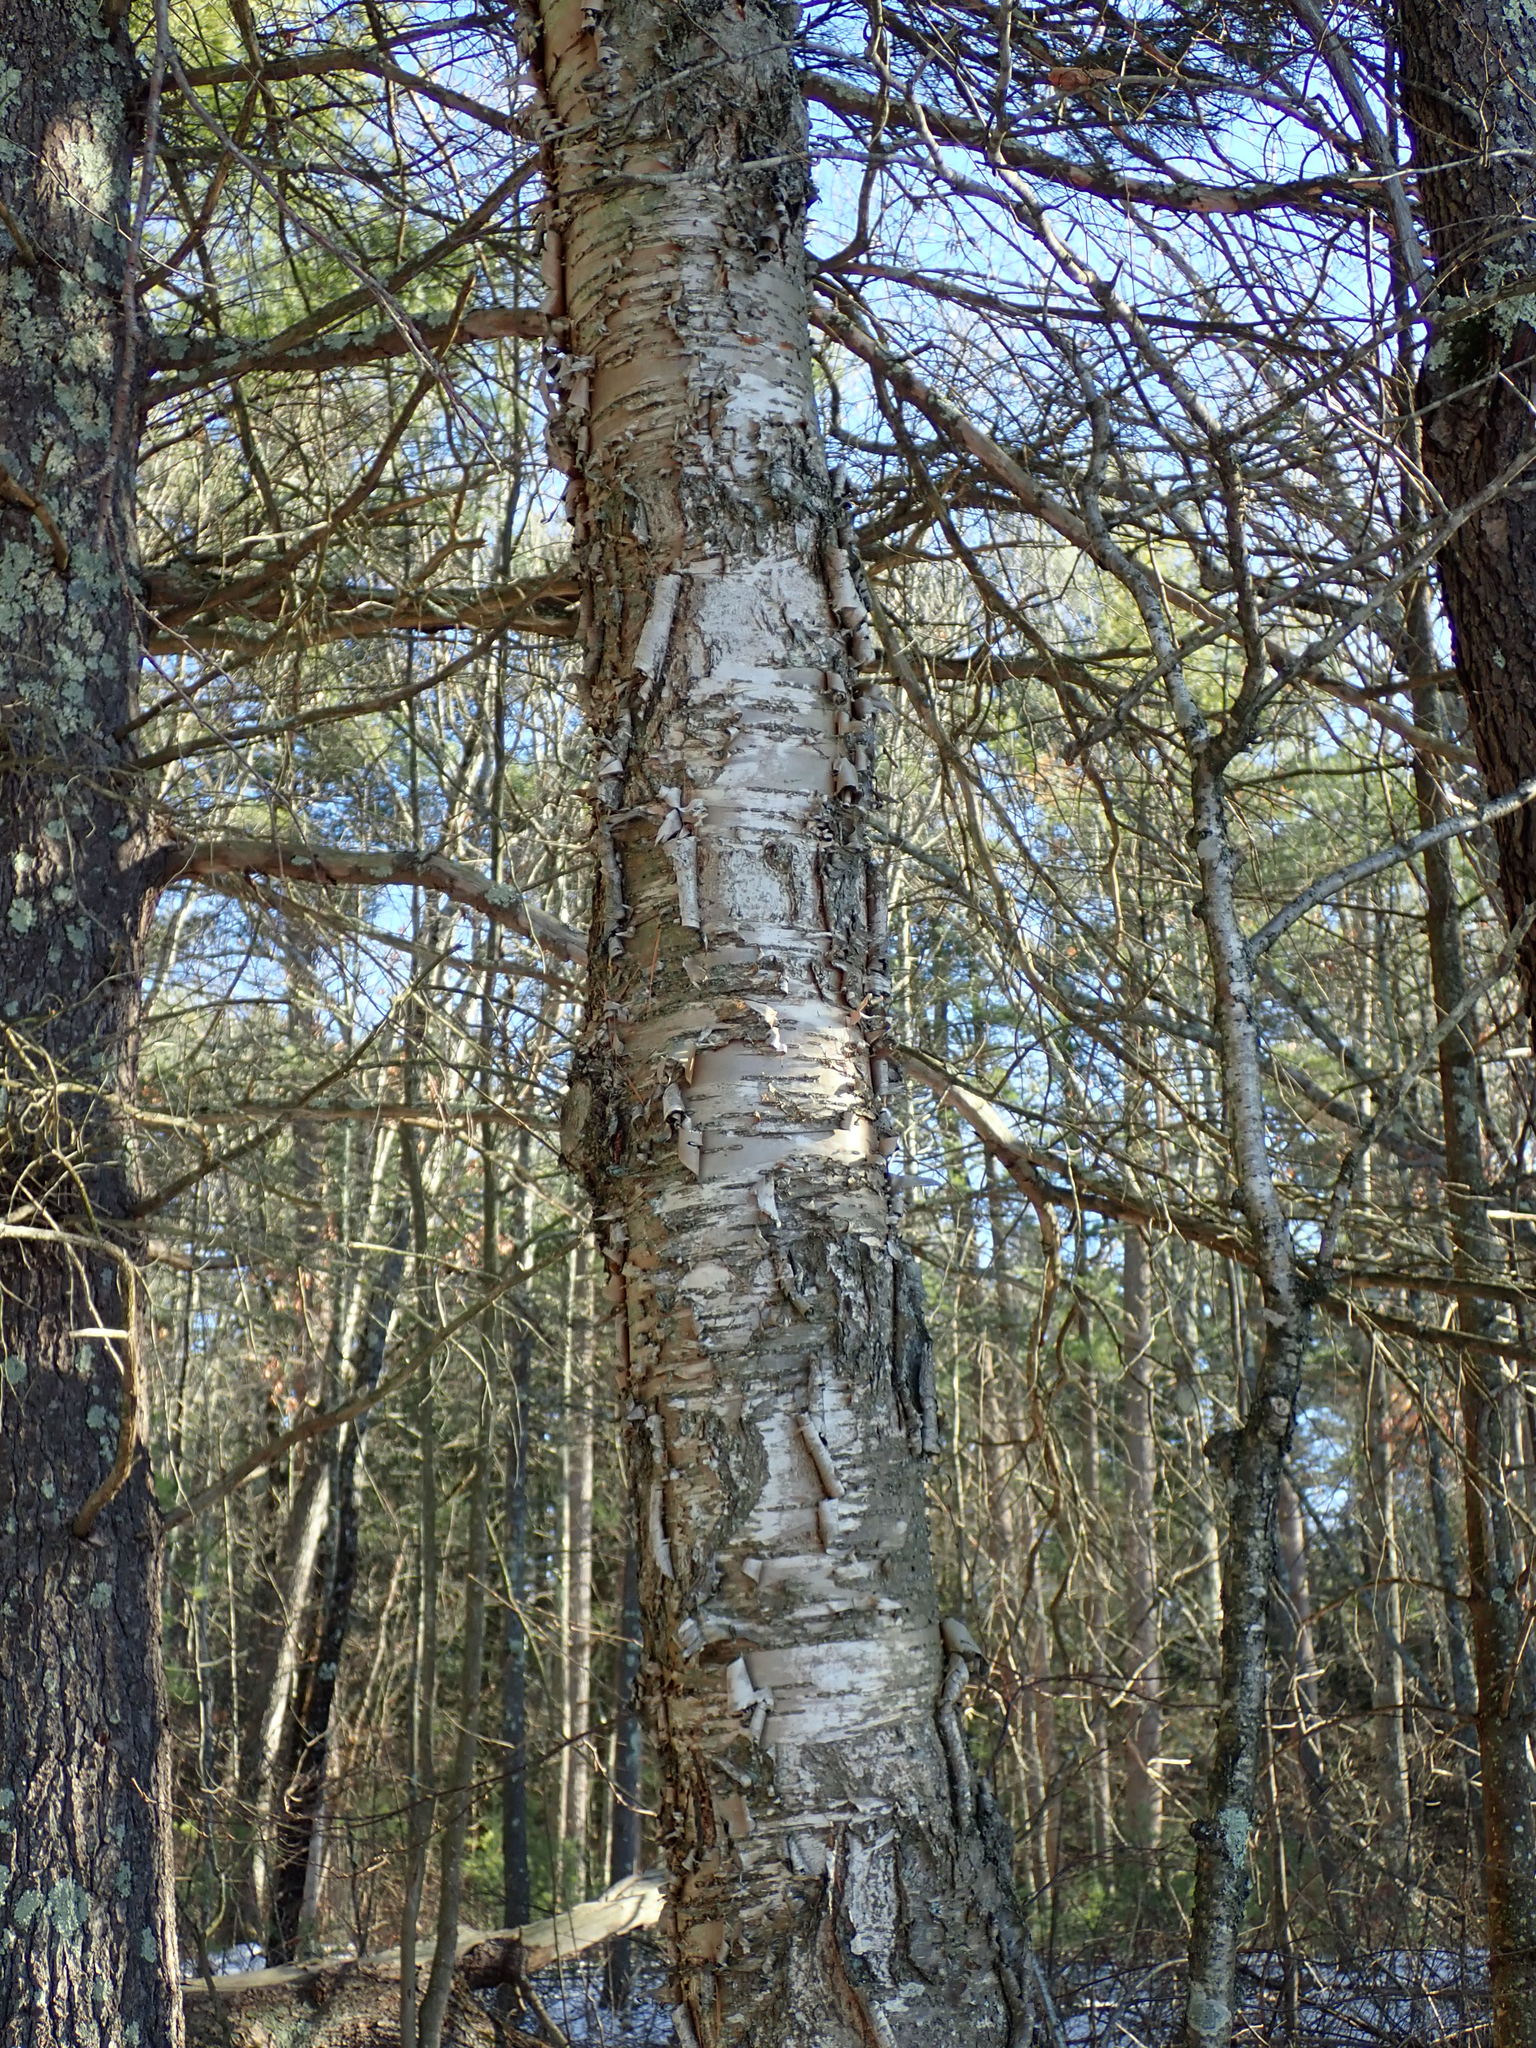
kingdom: Plantae
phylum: Tracheophyta
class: Magnoliopsida
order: Fagales
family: Betulaceae
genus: Betula
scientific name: Betula alleghaniensis
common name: Yellow birch
